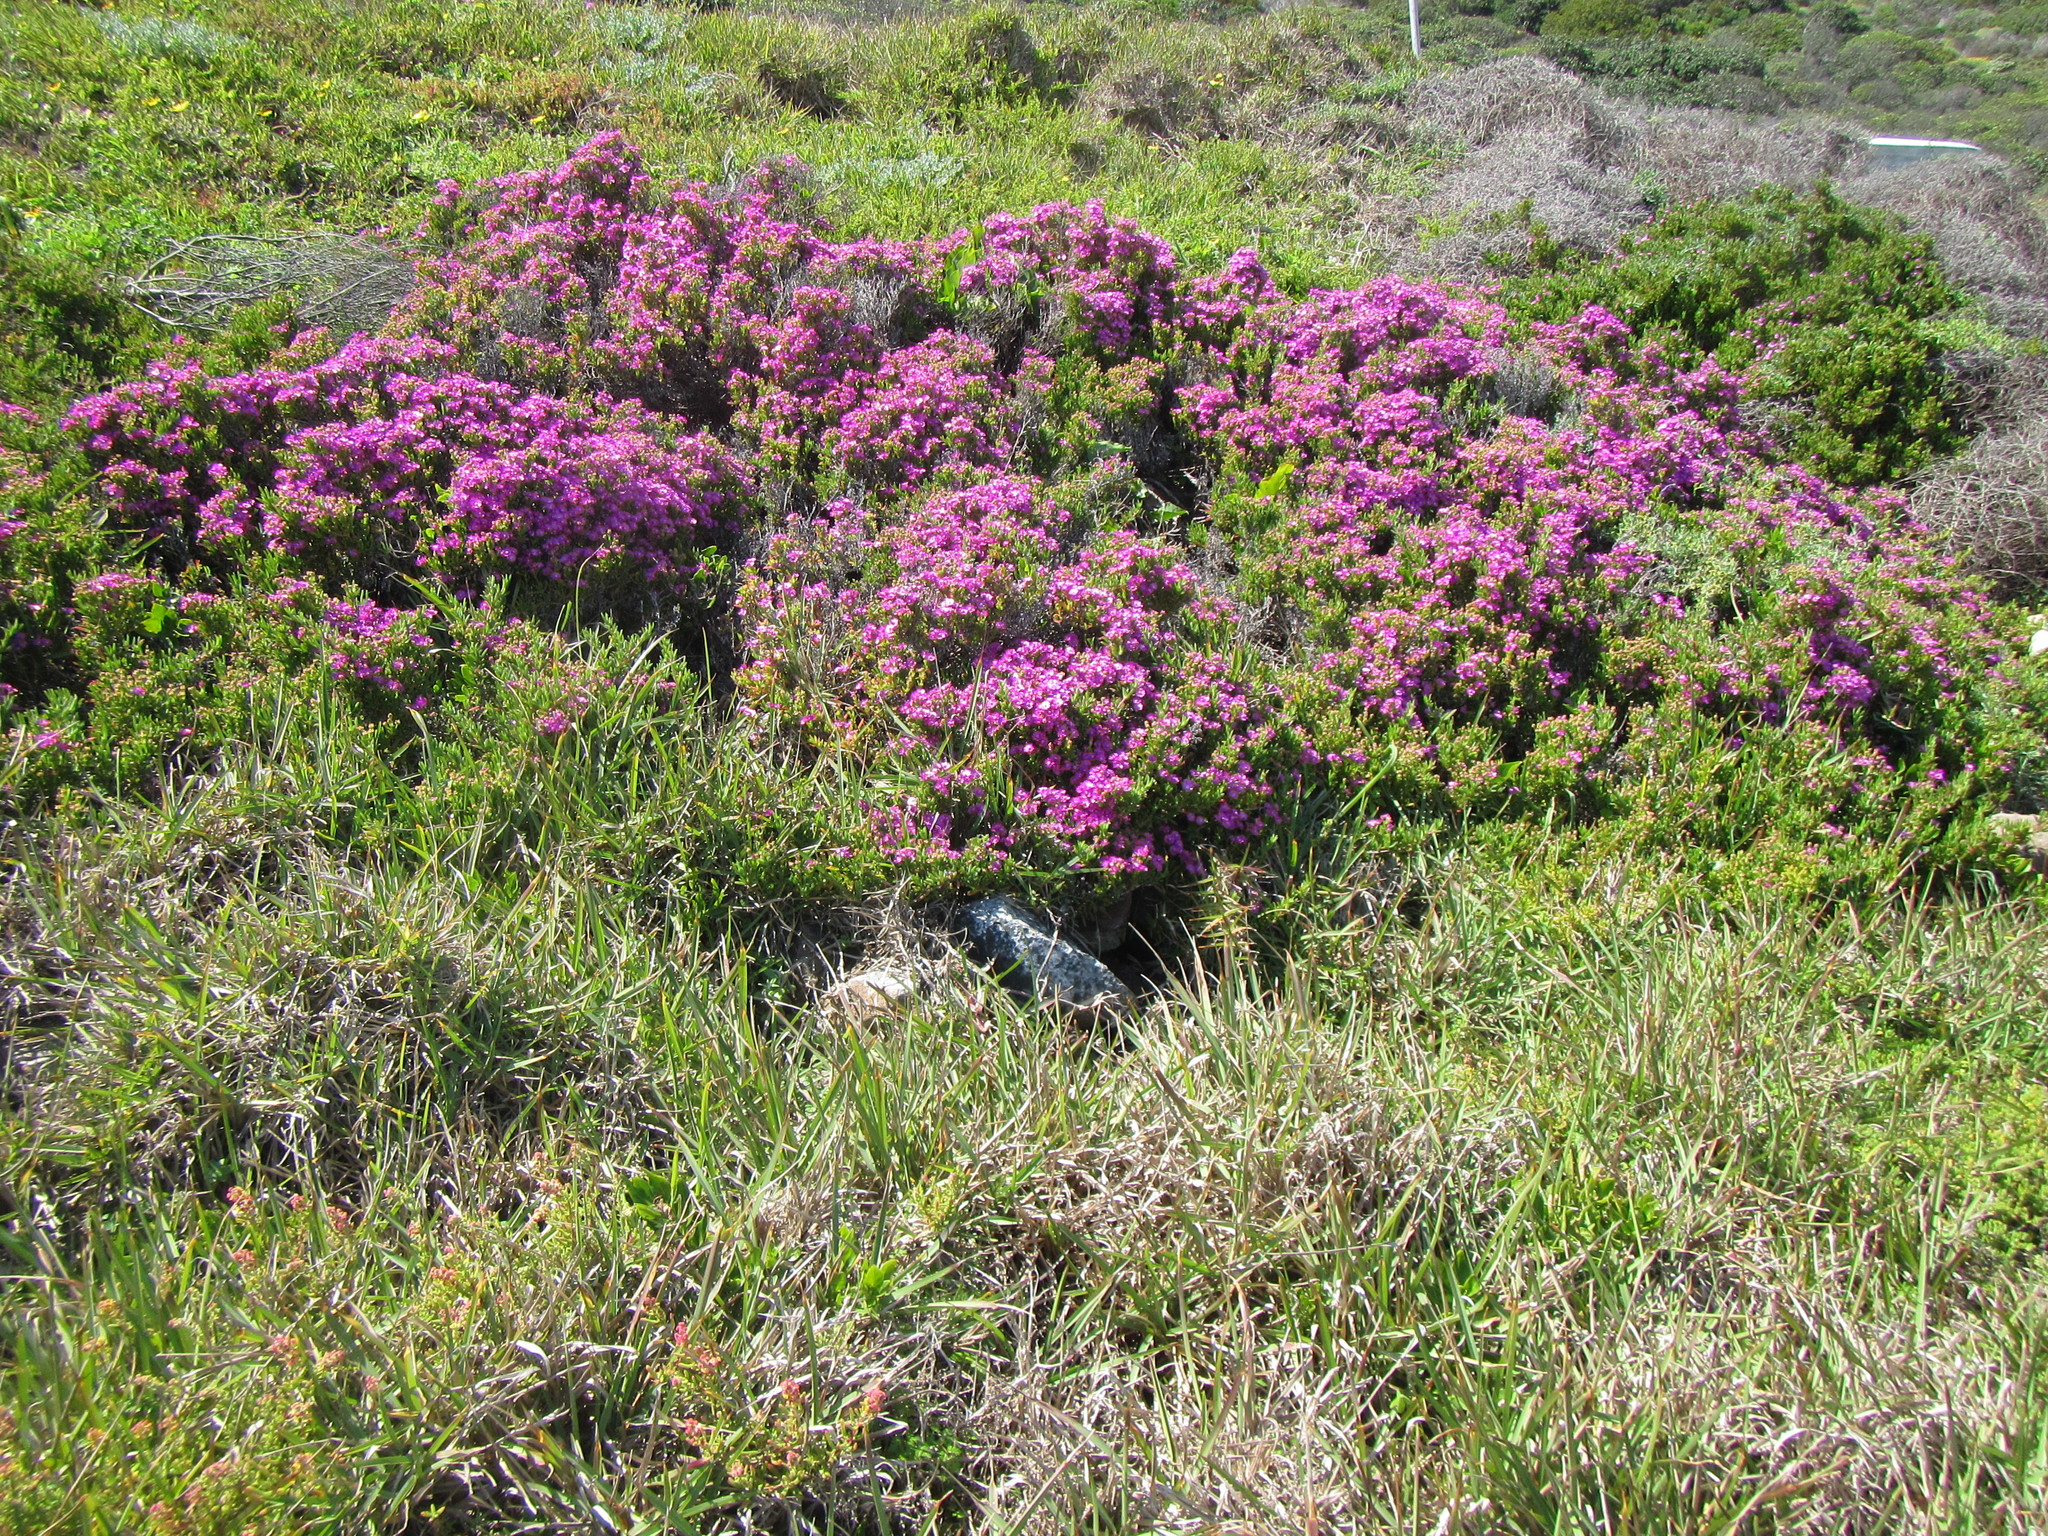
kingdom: Plantae
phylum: Tracheophyta
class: Magnoliopsida
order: Caryophyllales
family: Aizoaceae
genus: Ruschia
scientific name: Ruschia macowanii
